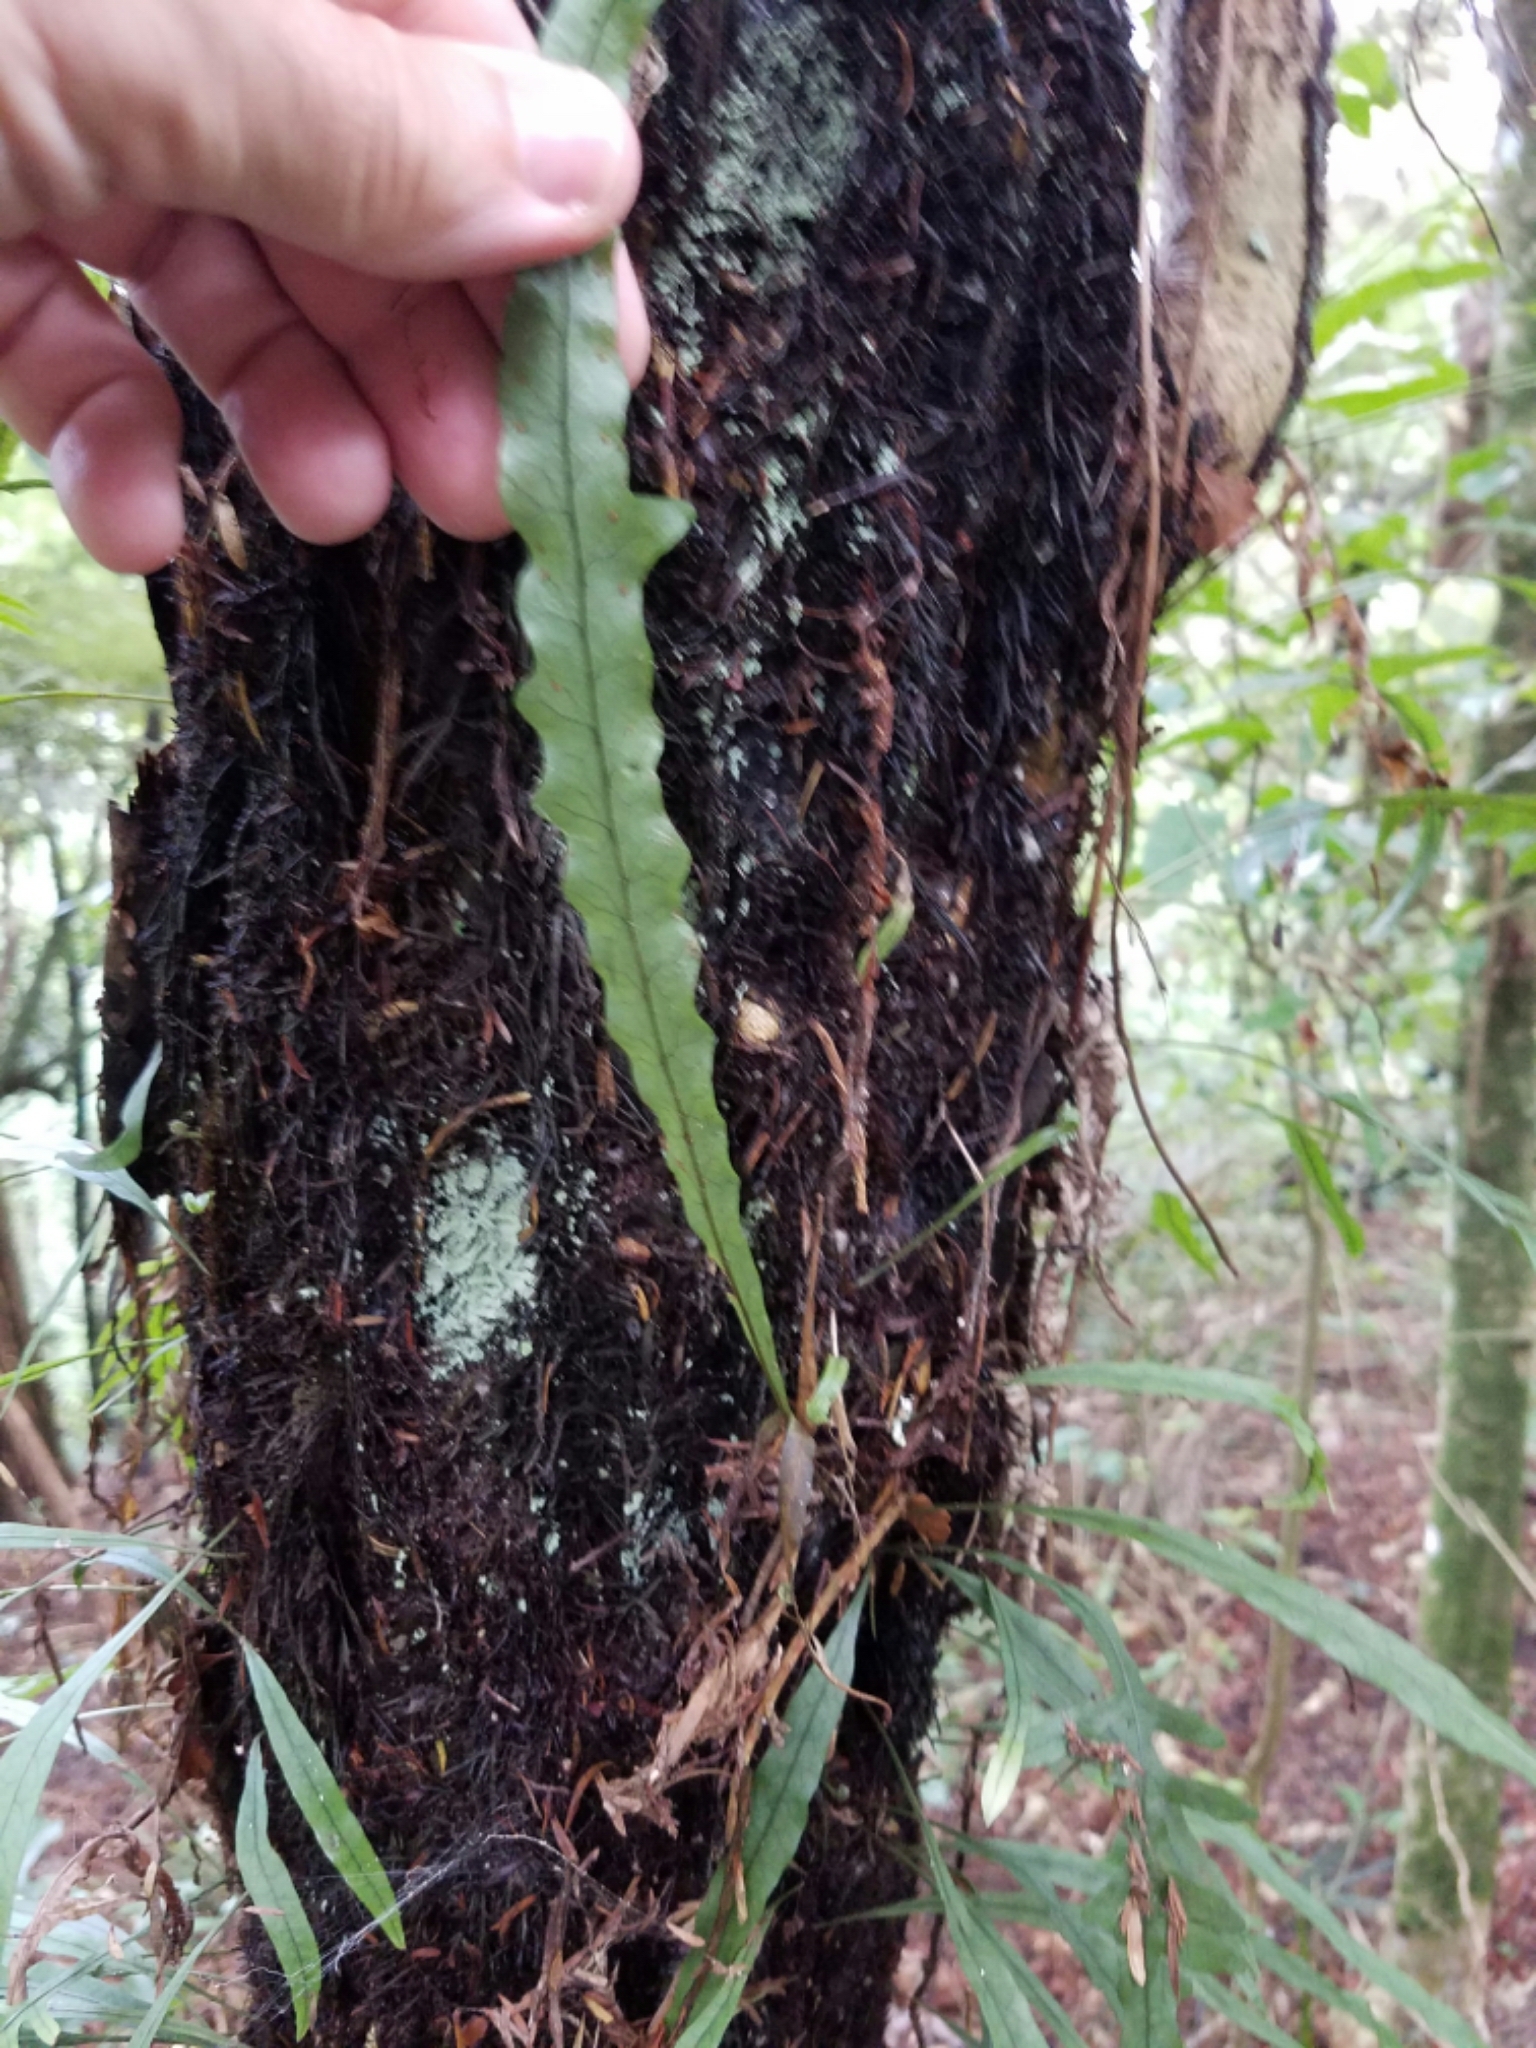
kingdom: Plantae
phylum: Tracheophyta
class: Polypodiopsida
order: Polypodiales
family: Polypodiaceae
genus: Lecanopteris
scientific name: Lecanopteris scandens
